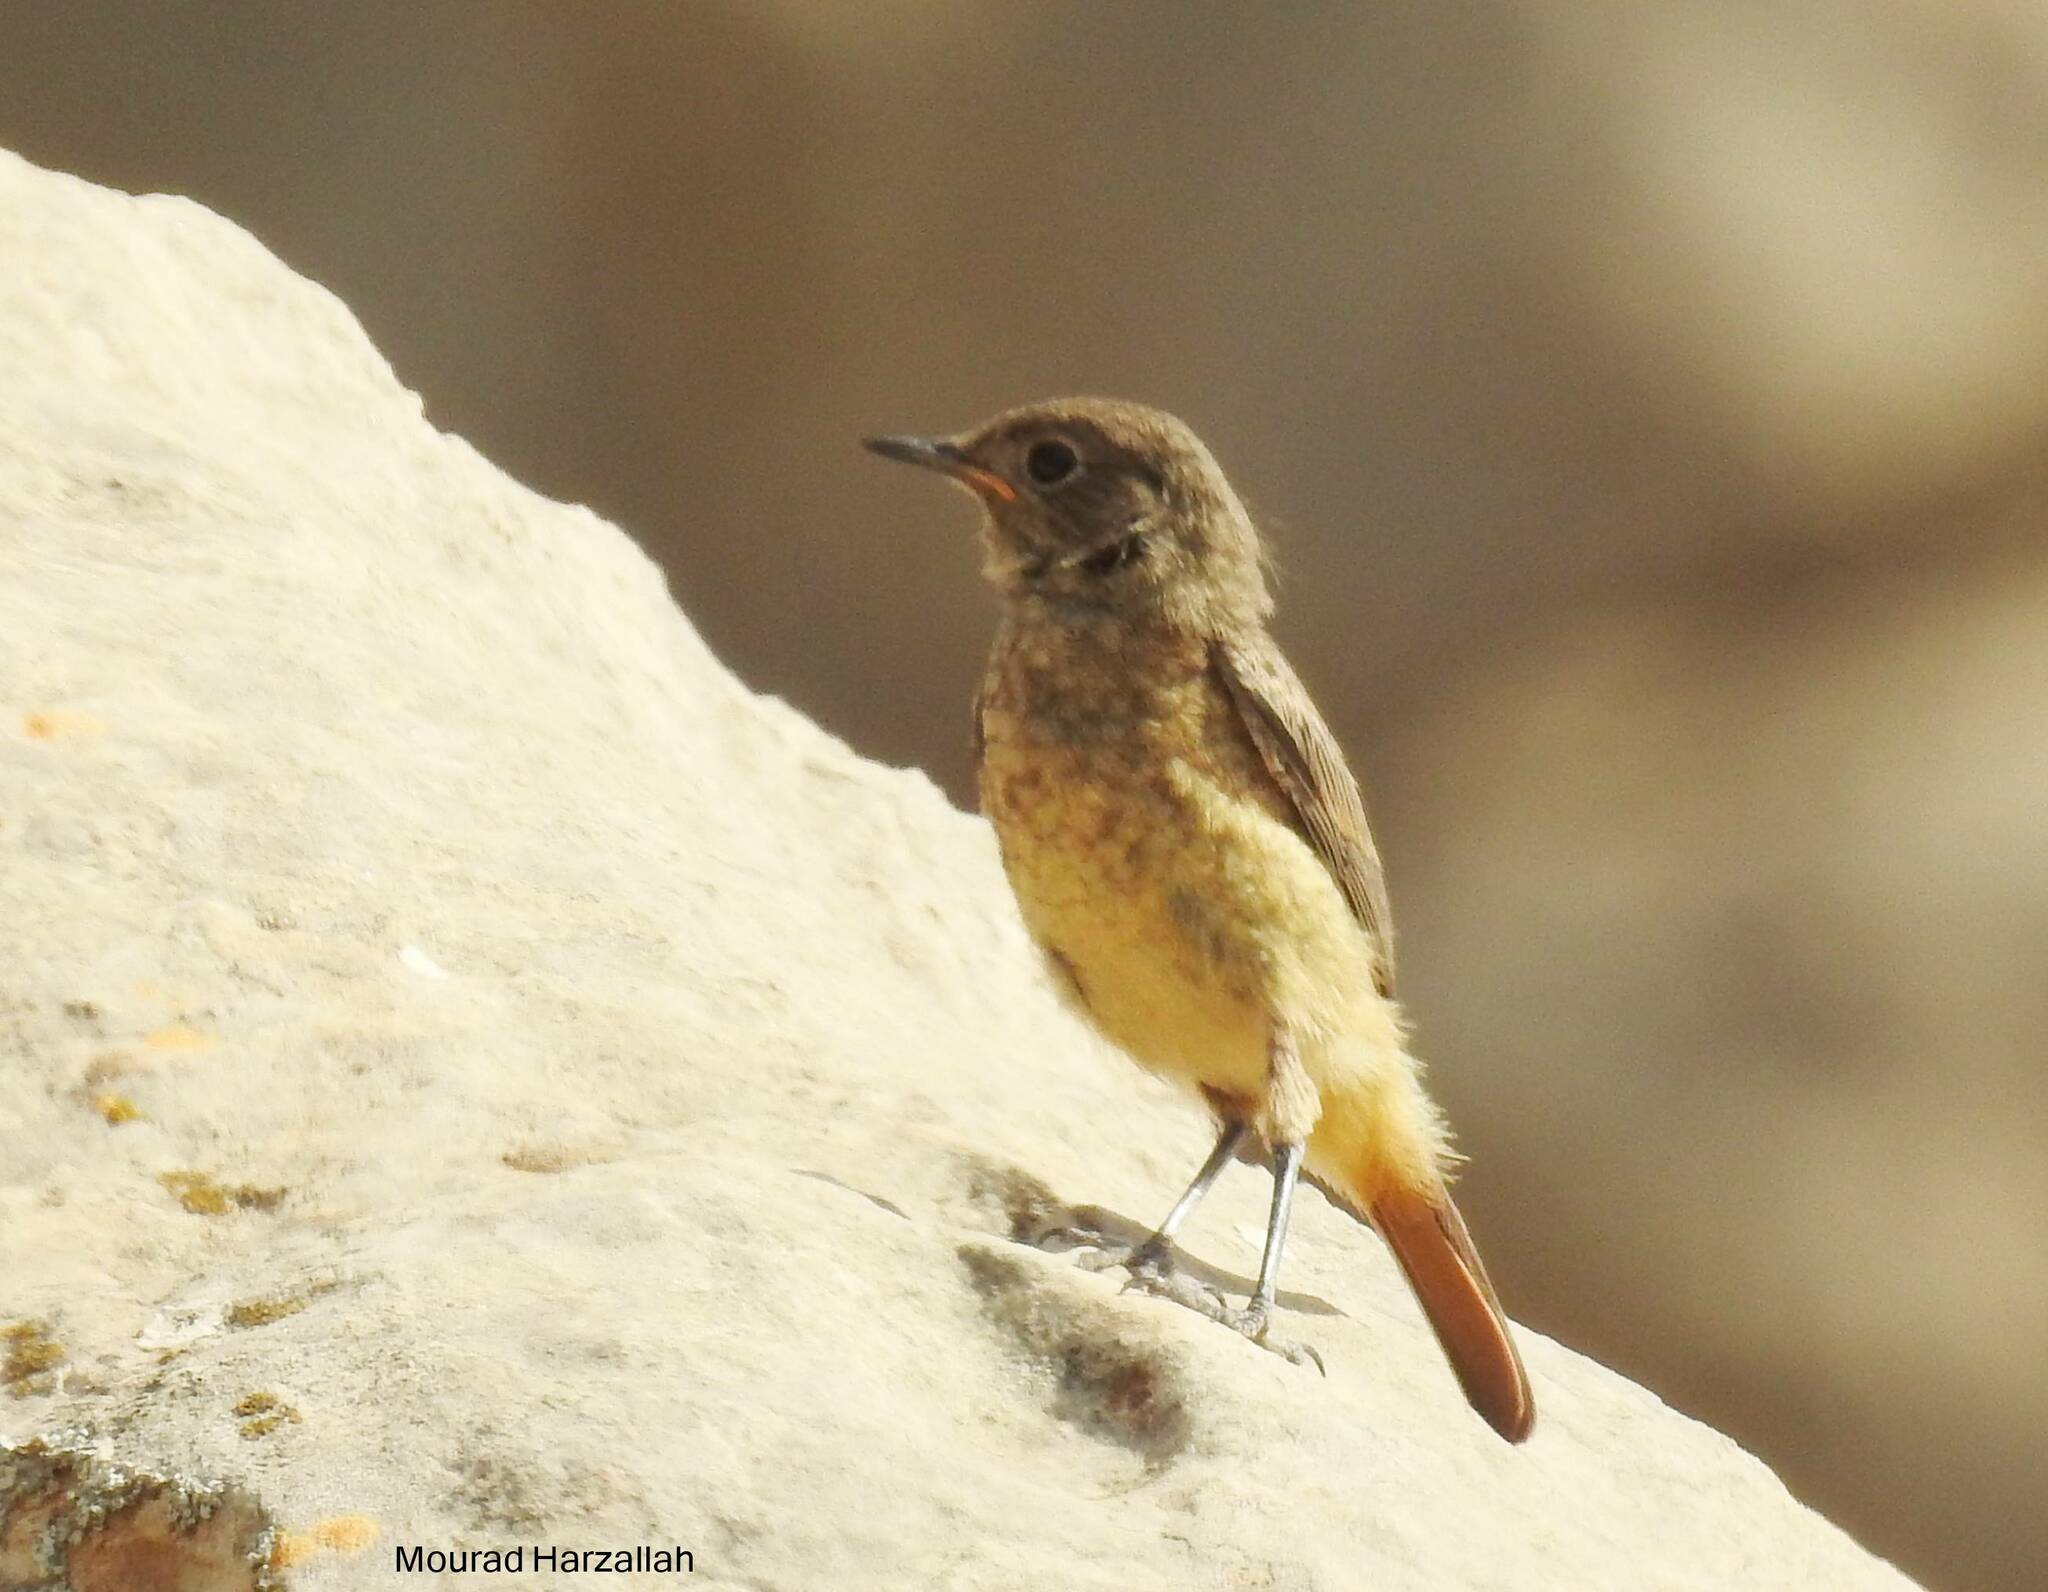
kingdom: Animalia
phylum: Chordata
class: Aves
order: Passeriformes
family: Muscicapidae
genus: Phoenicurus
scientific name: Phoenicurus moussieri
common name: Moussier's redstart
